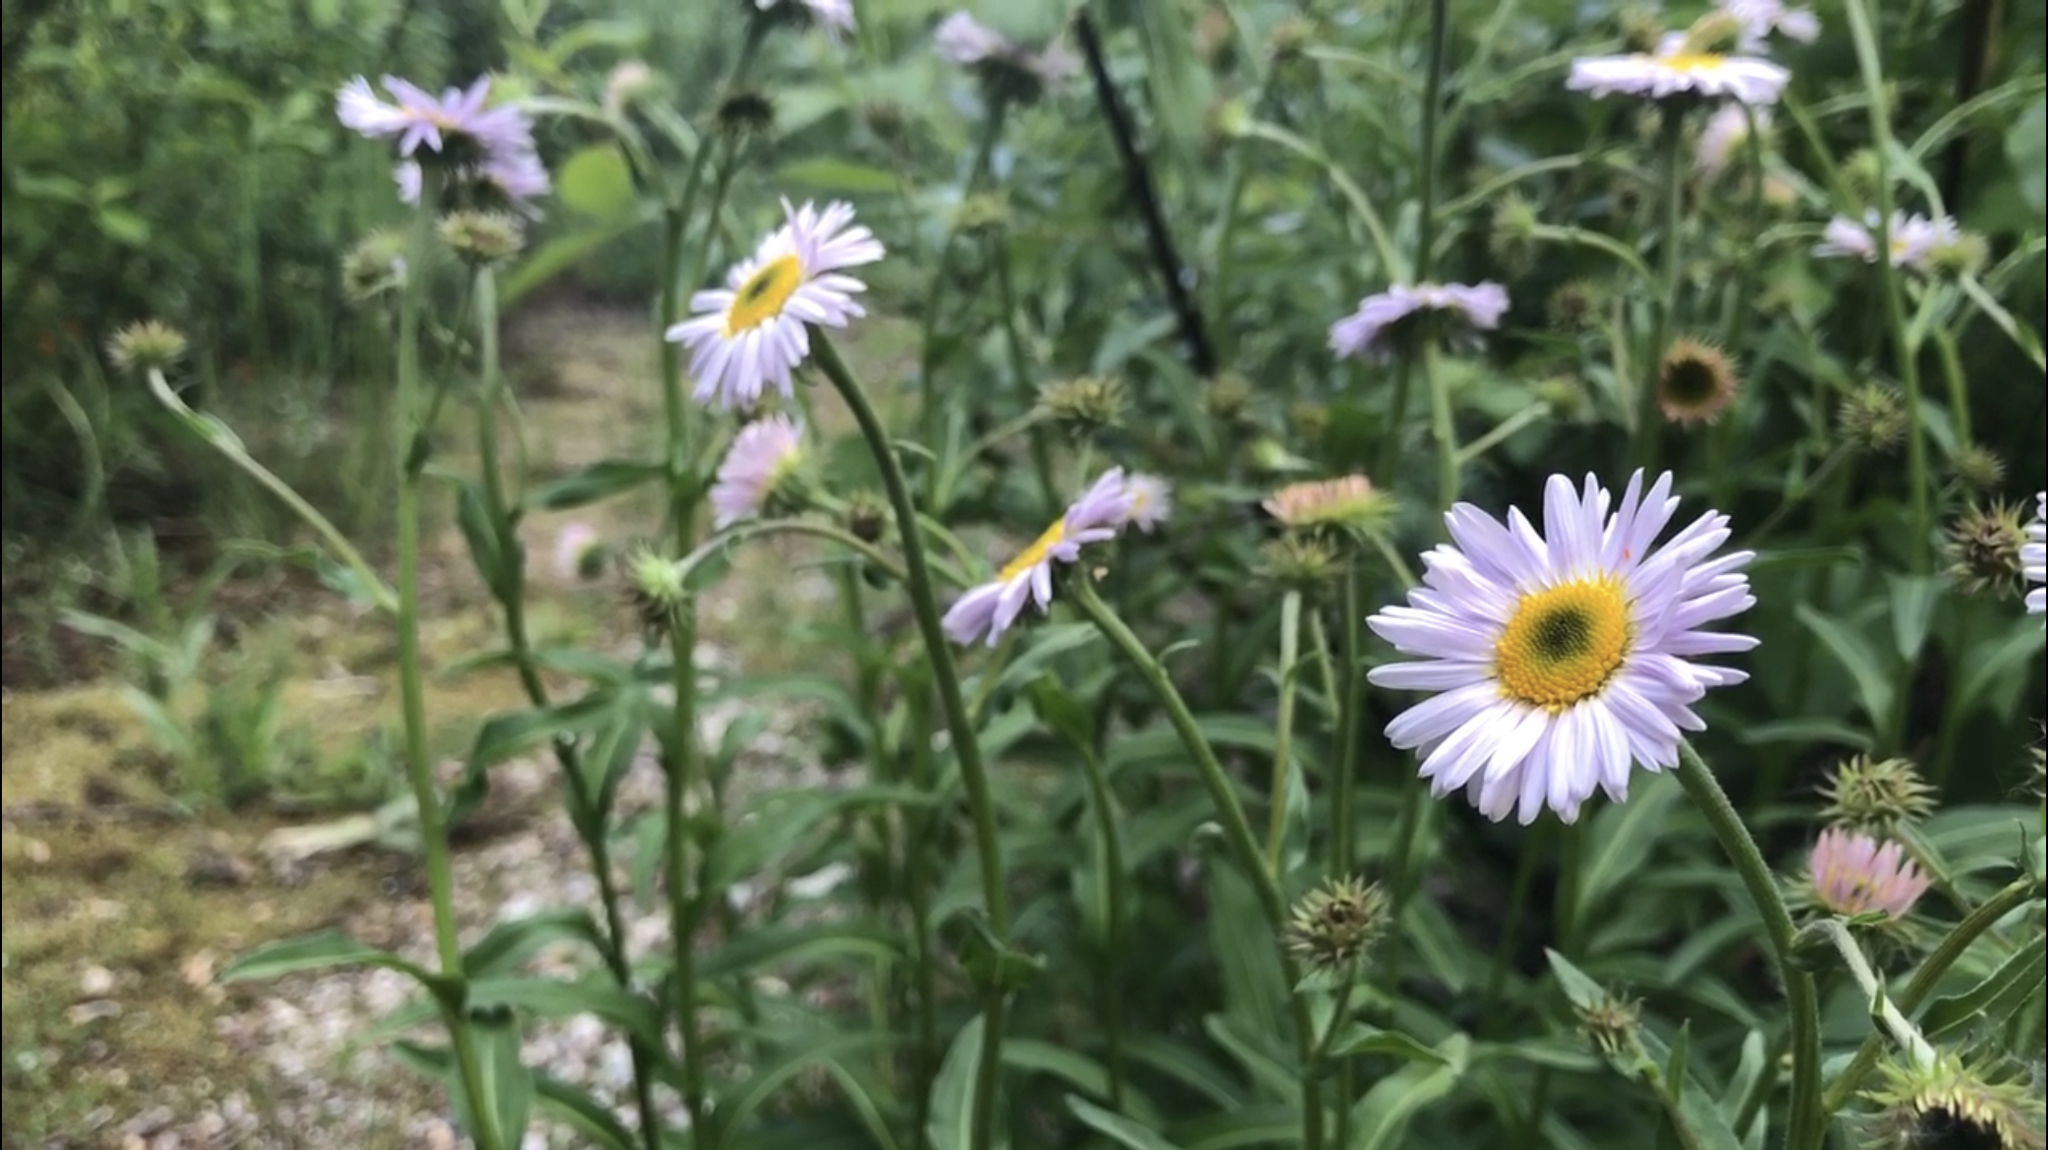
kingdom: Plantae
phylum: Tracheophyta
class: Magnoliopsida
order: Asterales
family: Asteraceae
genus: Erigeron
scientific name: Erigeron glacialis
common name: Subalpine fleabane
